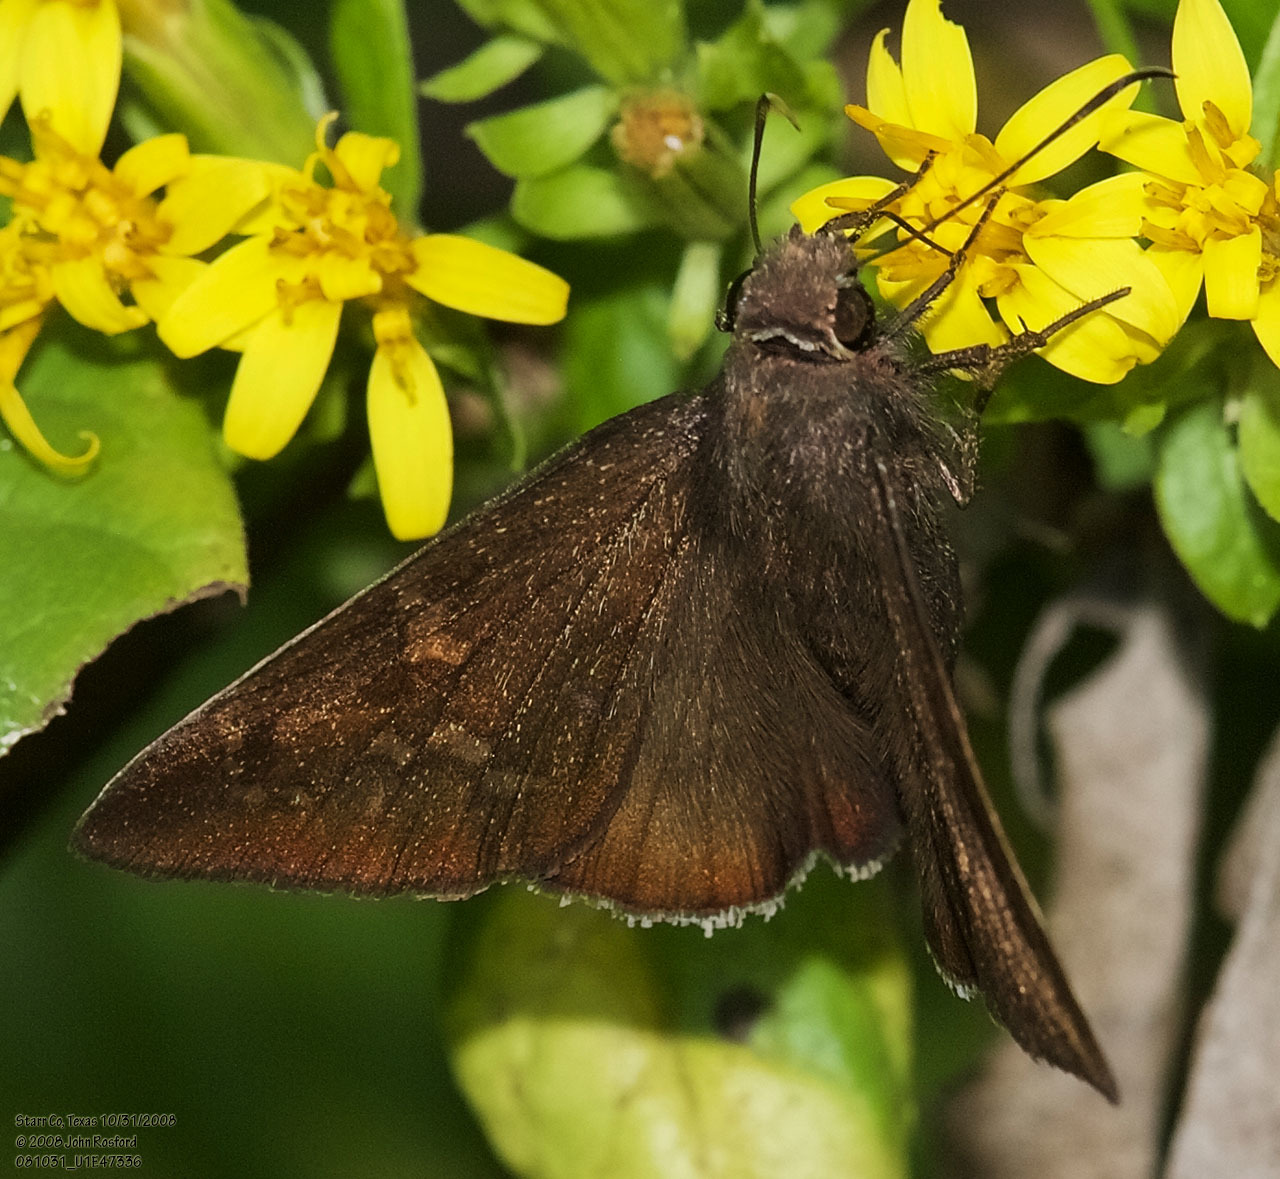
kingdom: Animalia
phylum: Arthropoda
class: Insecta
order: Lepidoptera
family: Hesperiidae
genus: Achalarus
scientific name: Achalarus Murgaria albociliatus
